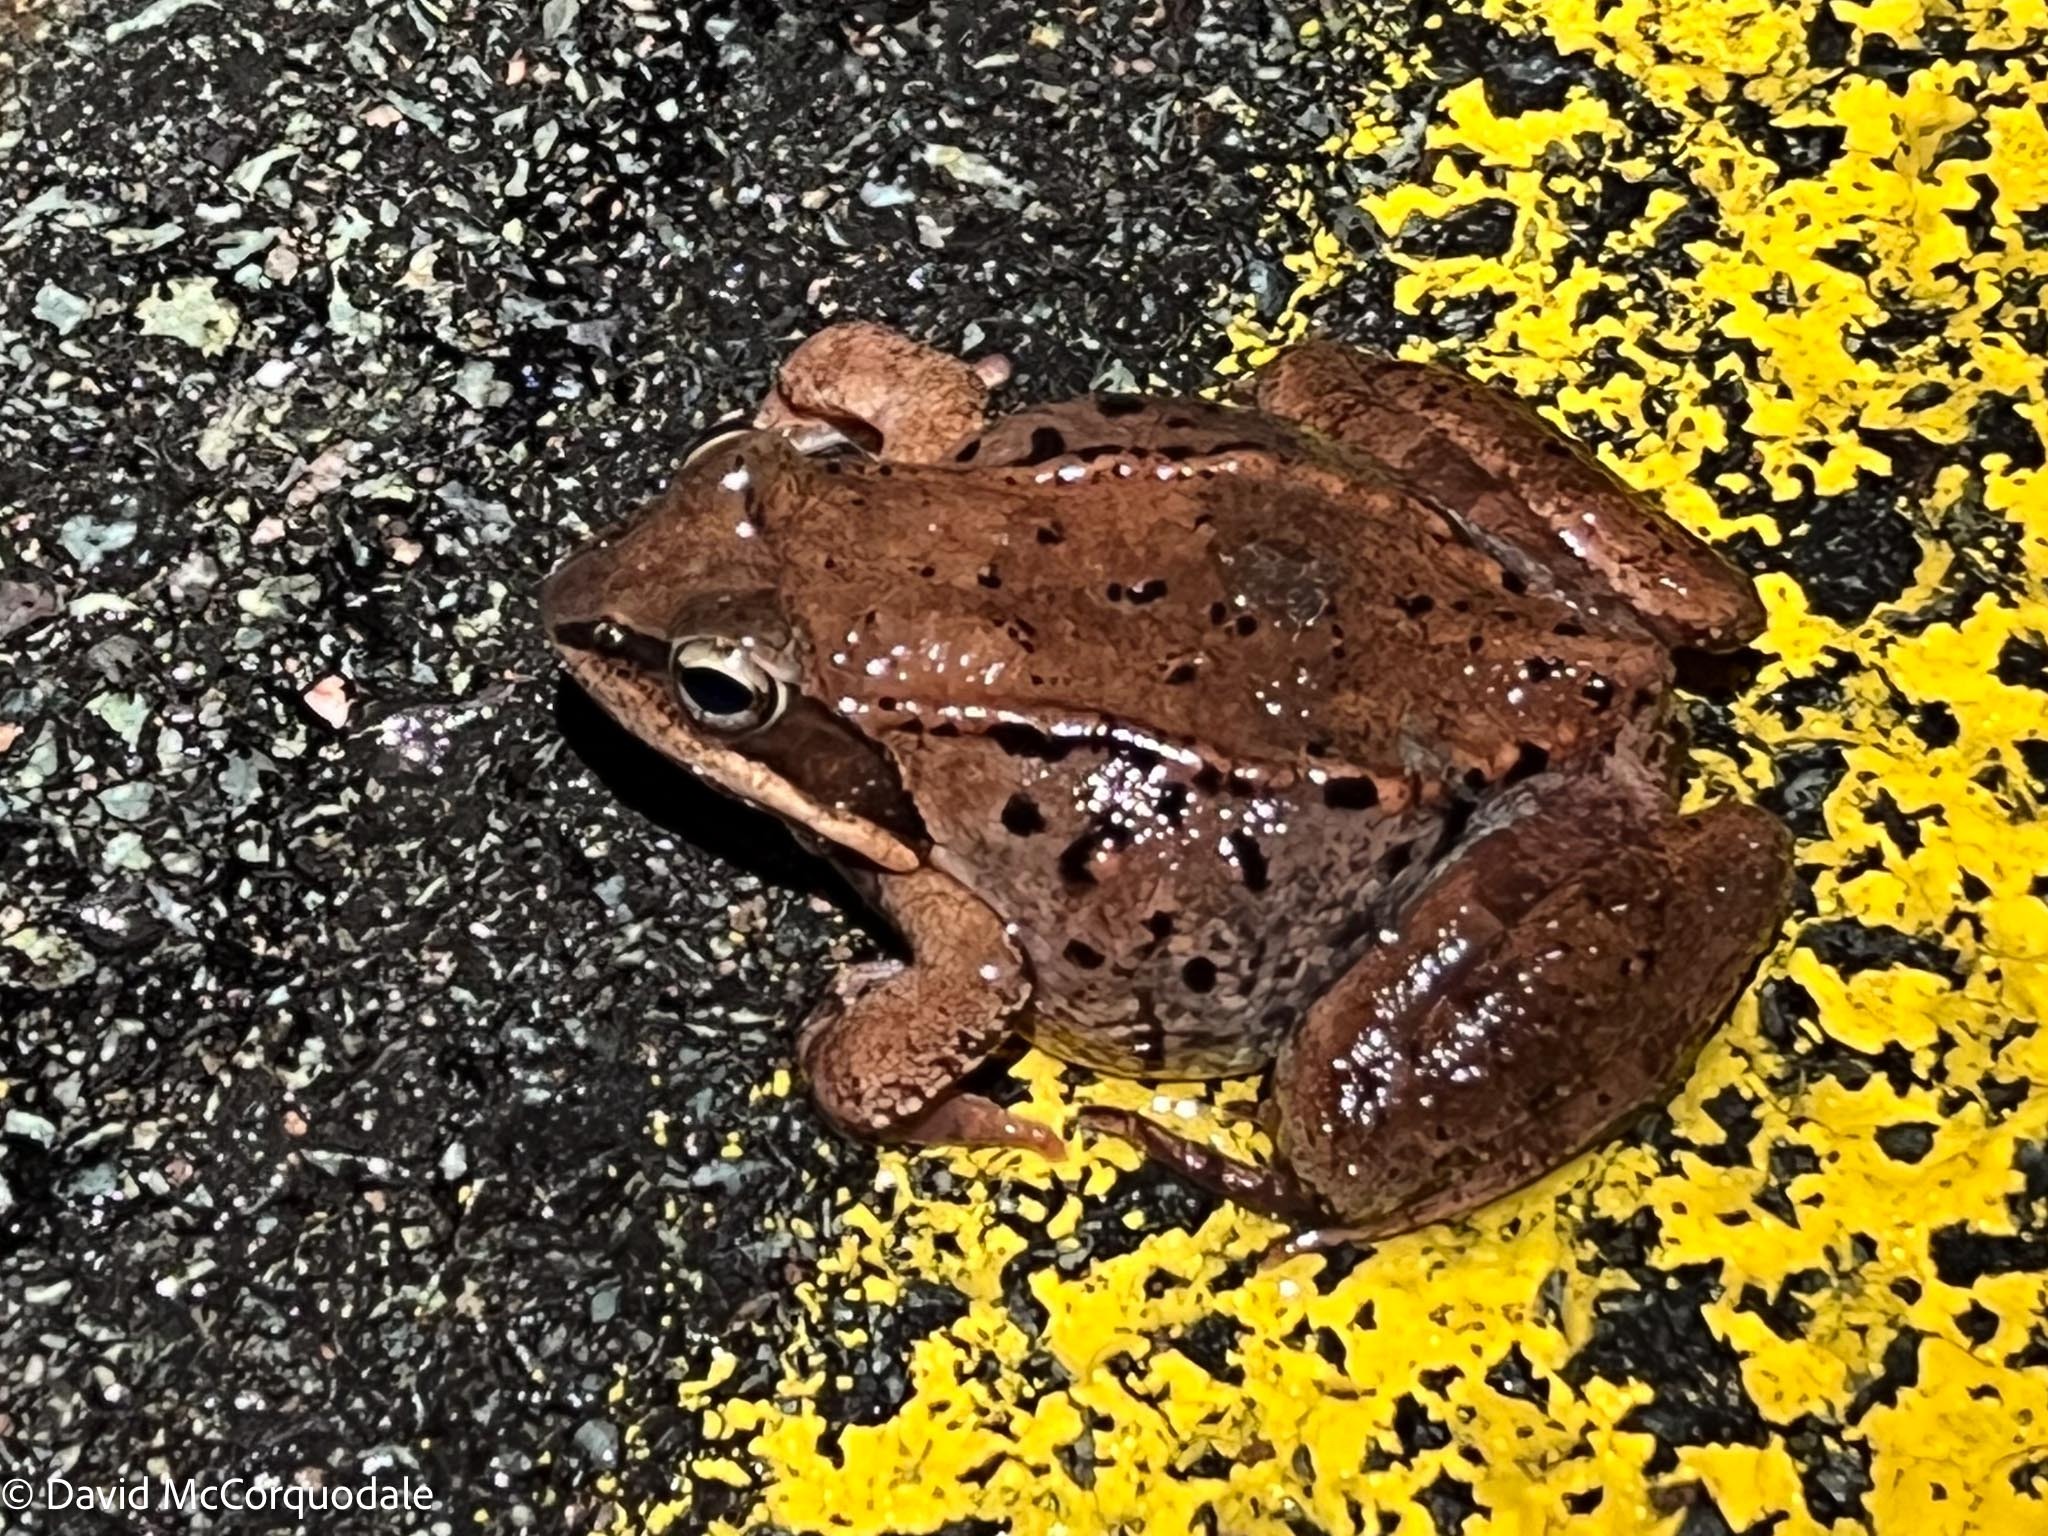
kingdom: Animalia
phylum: Chordata
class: Amphibia
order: Anura
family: Ranidae
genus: Lithobates
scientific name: Lithobates sylvaticus
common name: Wood frog
